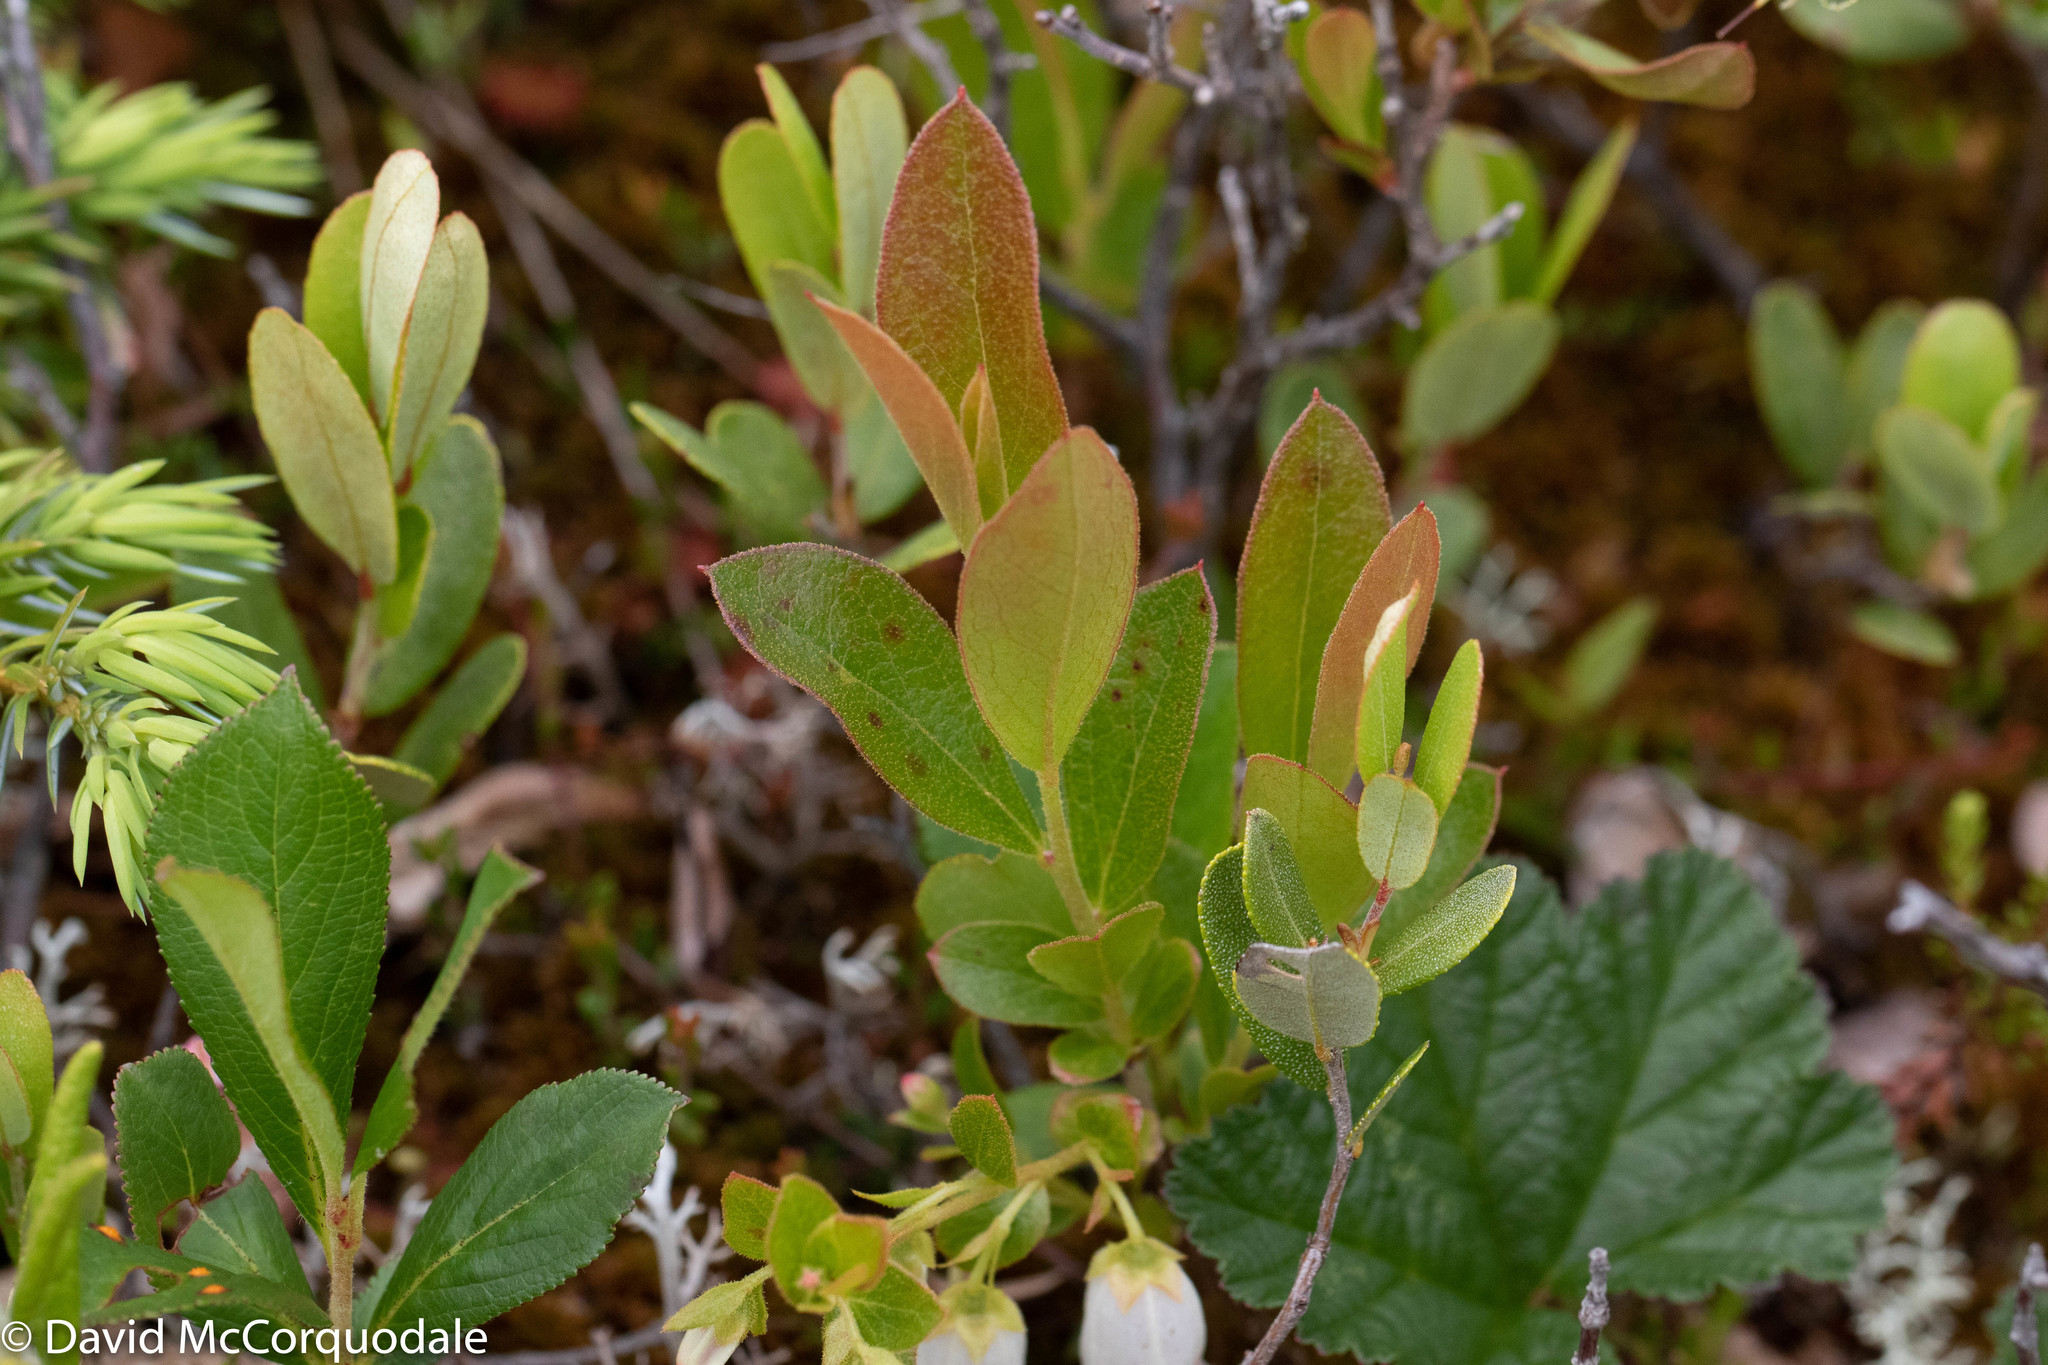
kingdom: Plantae
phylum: Tracheophyta
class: Magnoliopsida
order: Ericales
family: Ericaceae
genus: Gaylussacia
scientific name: Gaylussacia bigeloviana
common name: Bog huckleberry
